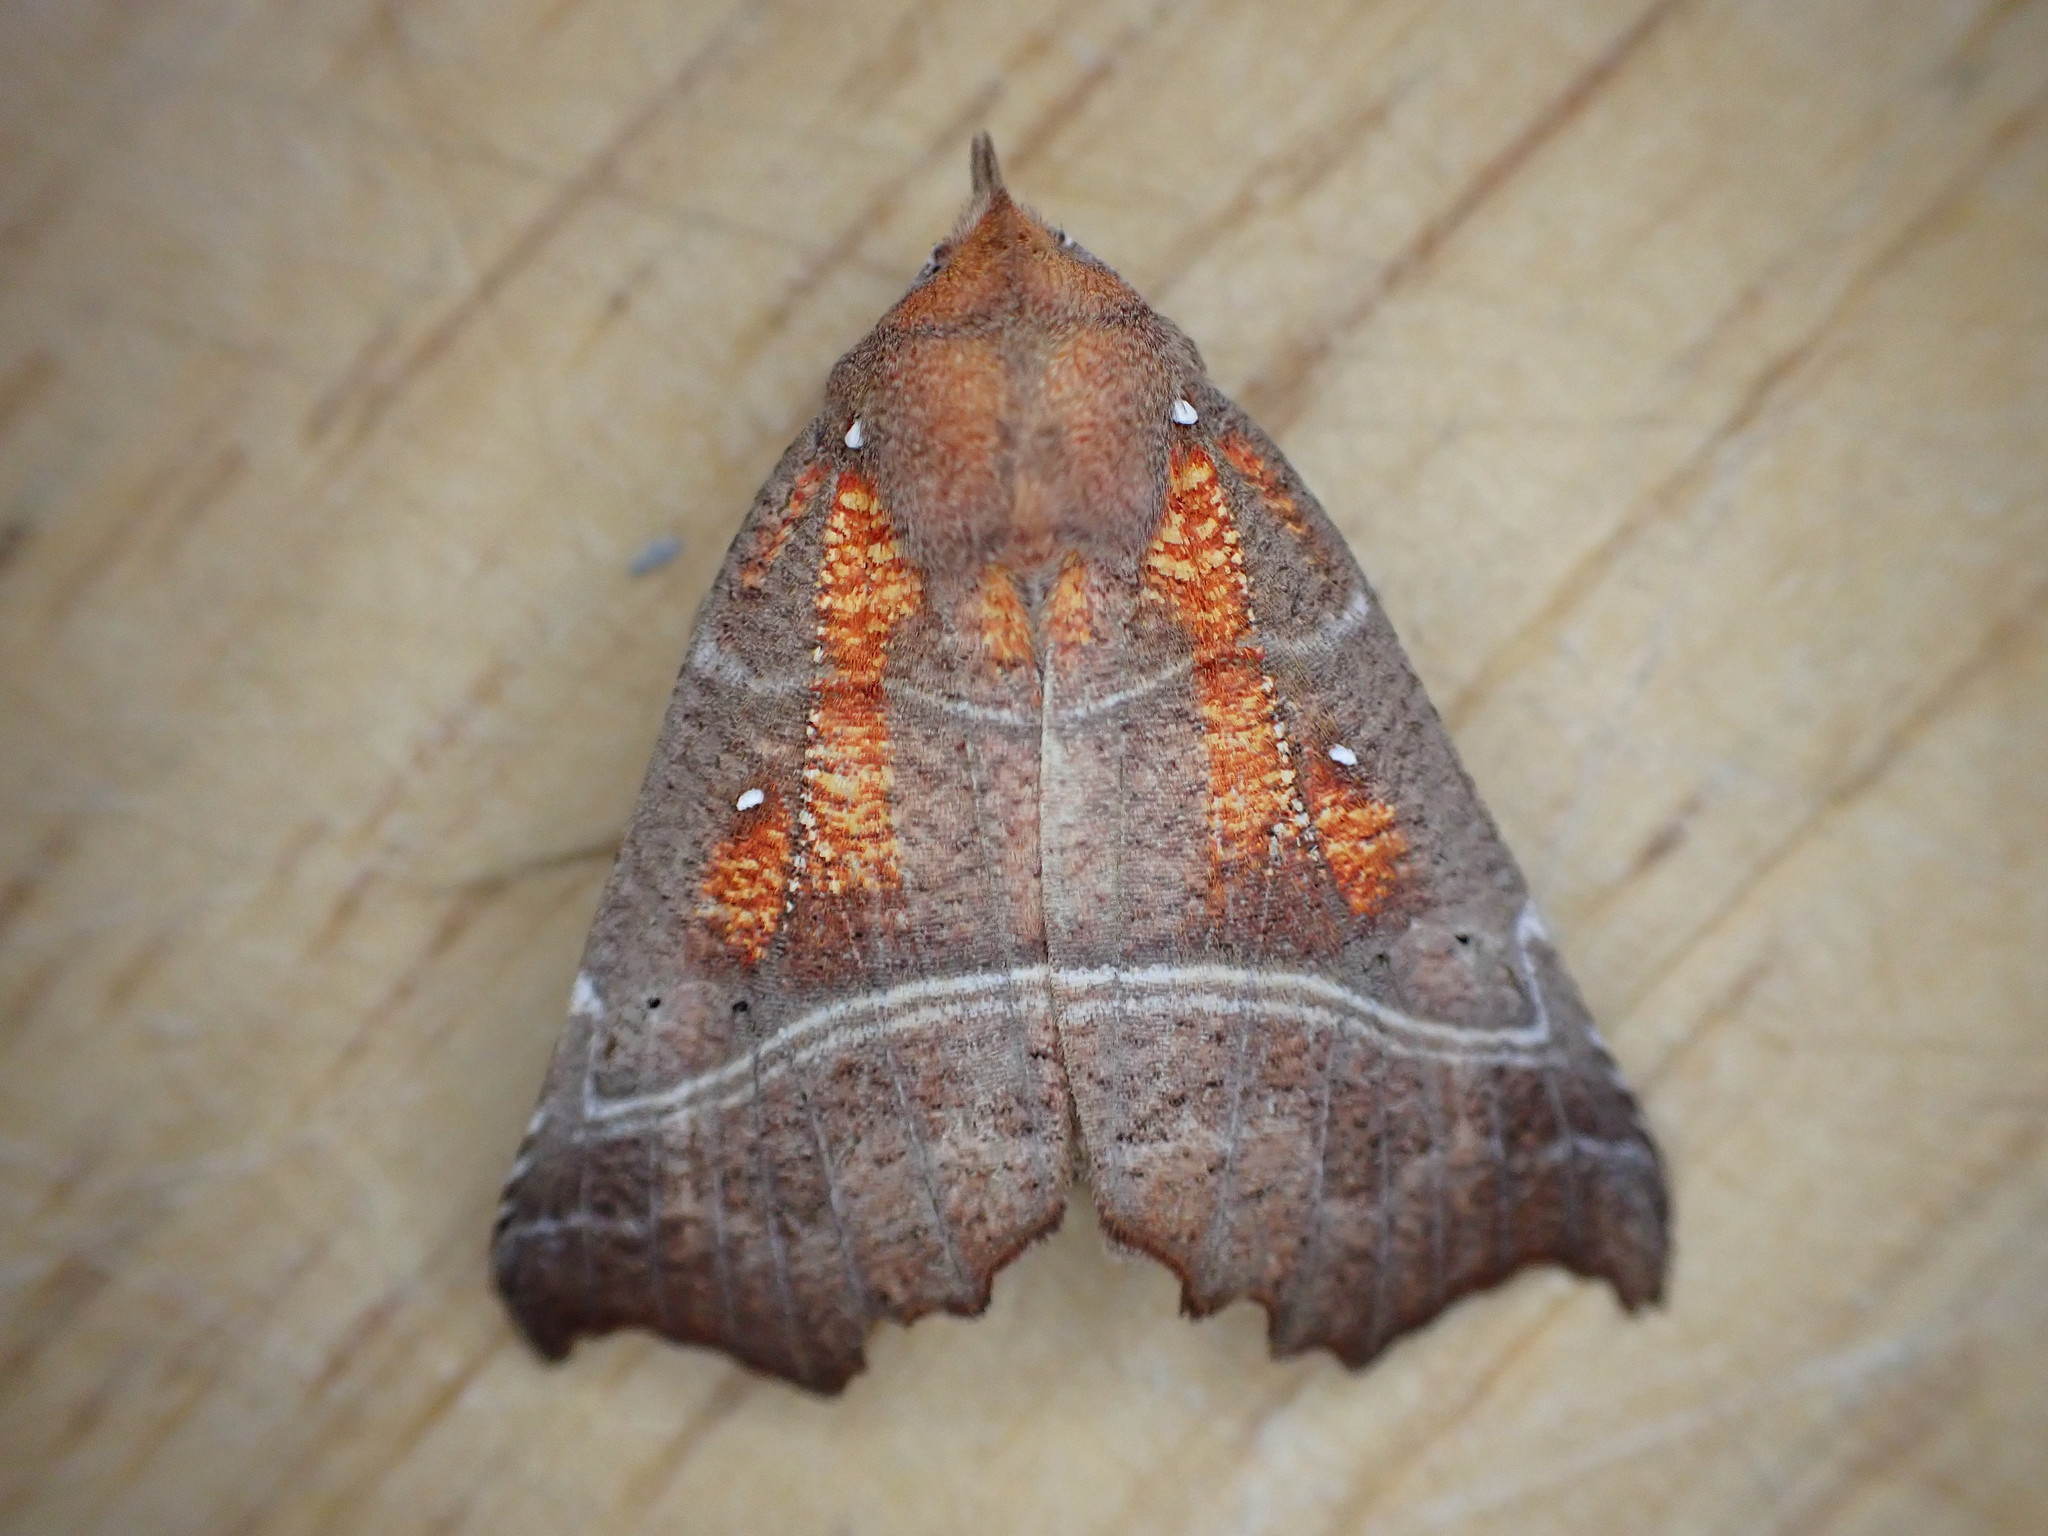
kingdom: Animalia
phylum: Arthropoda
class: Insecta
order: Lepidoptera
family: Erebidae
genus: Scoliopteryx
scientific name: Scoliopteryx libatrix
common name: Herald
